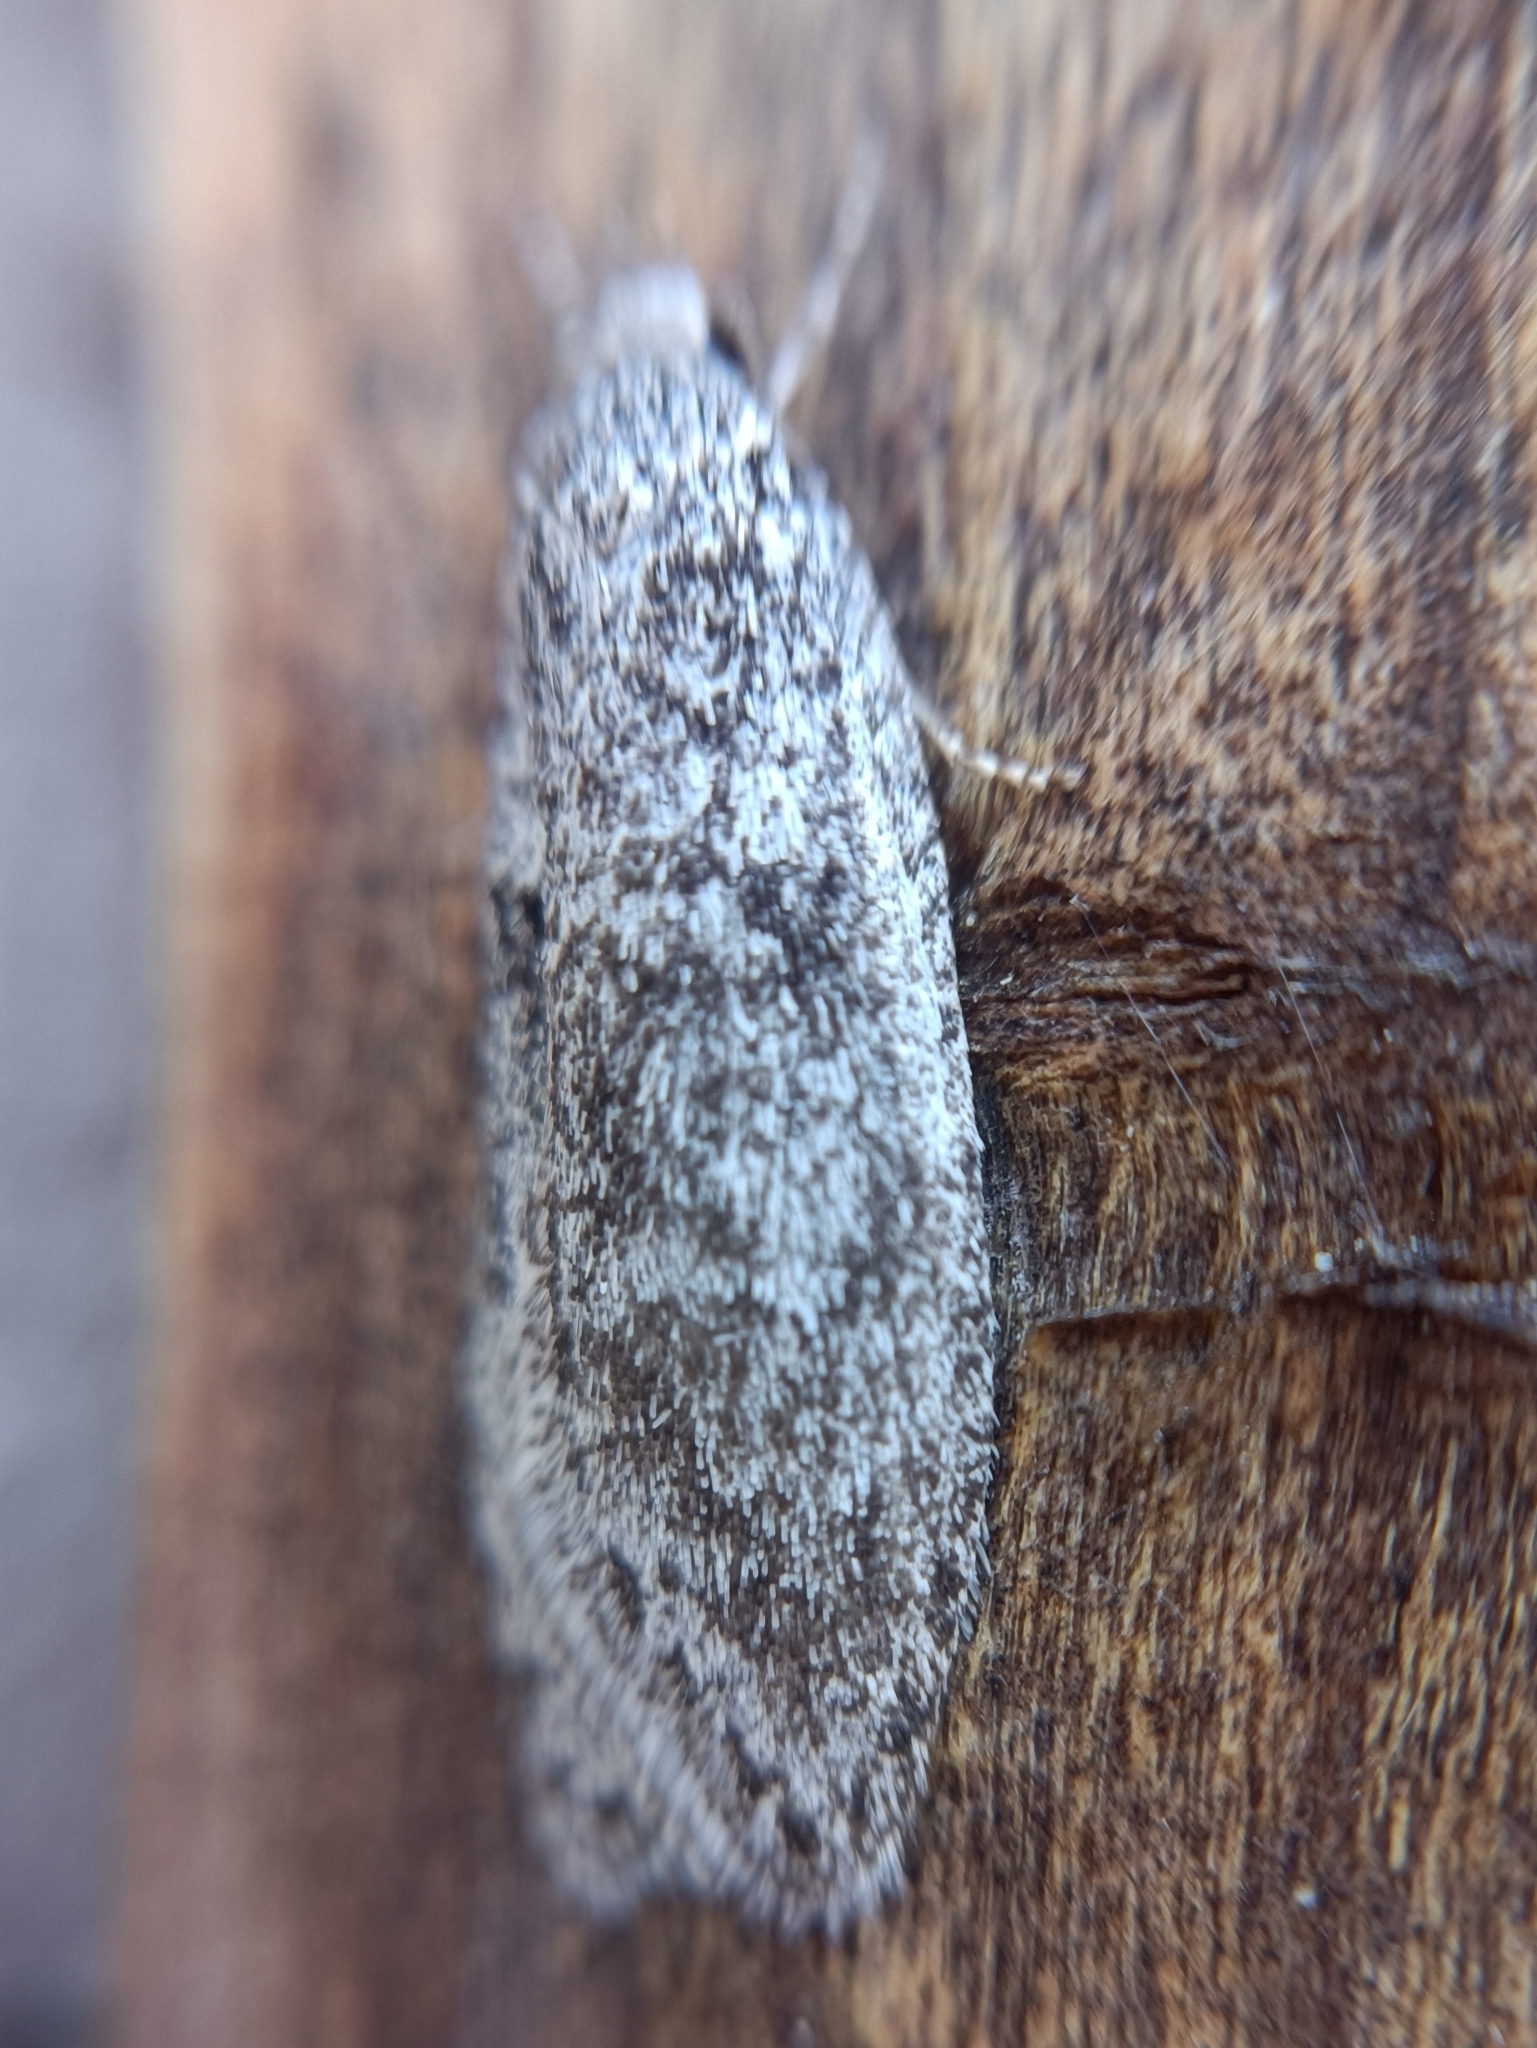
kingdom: Animalia
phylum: Arthropoda
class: Insecta
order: Lepidoptera
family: Depressariidae
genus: Semioscopis
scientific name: Semioscopis strigulana
